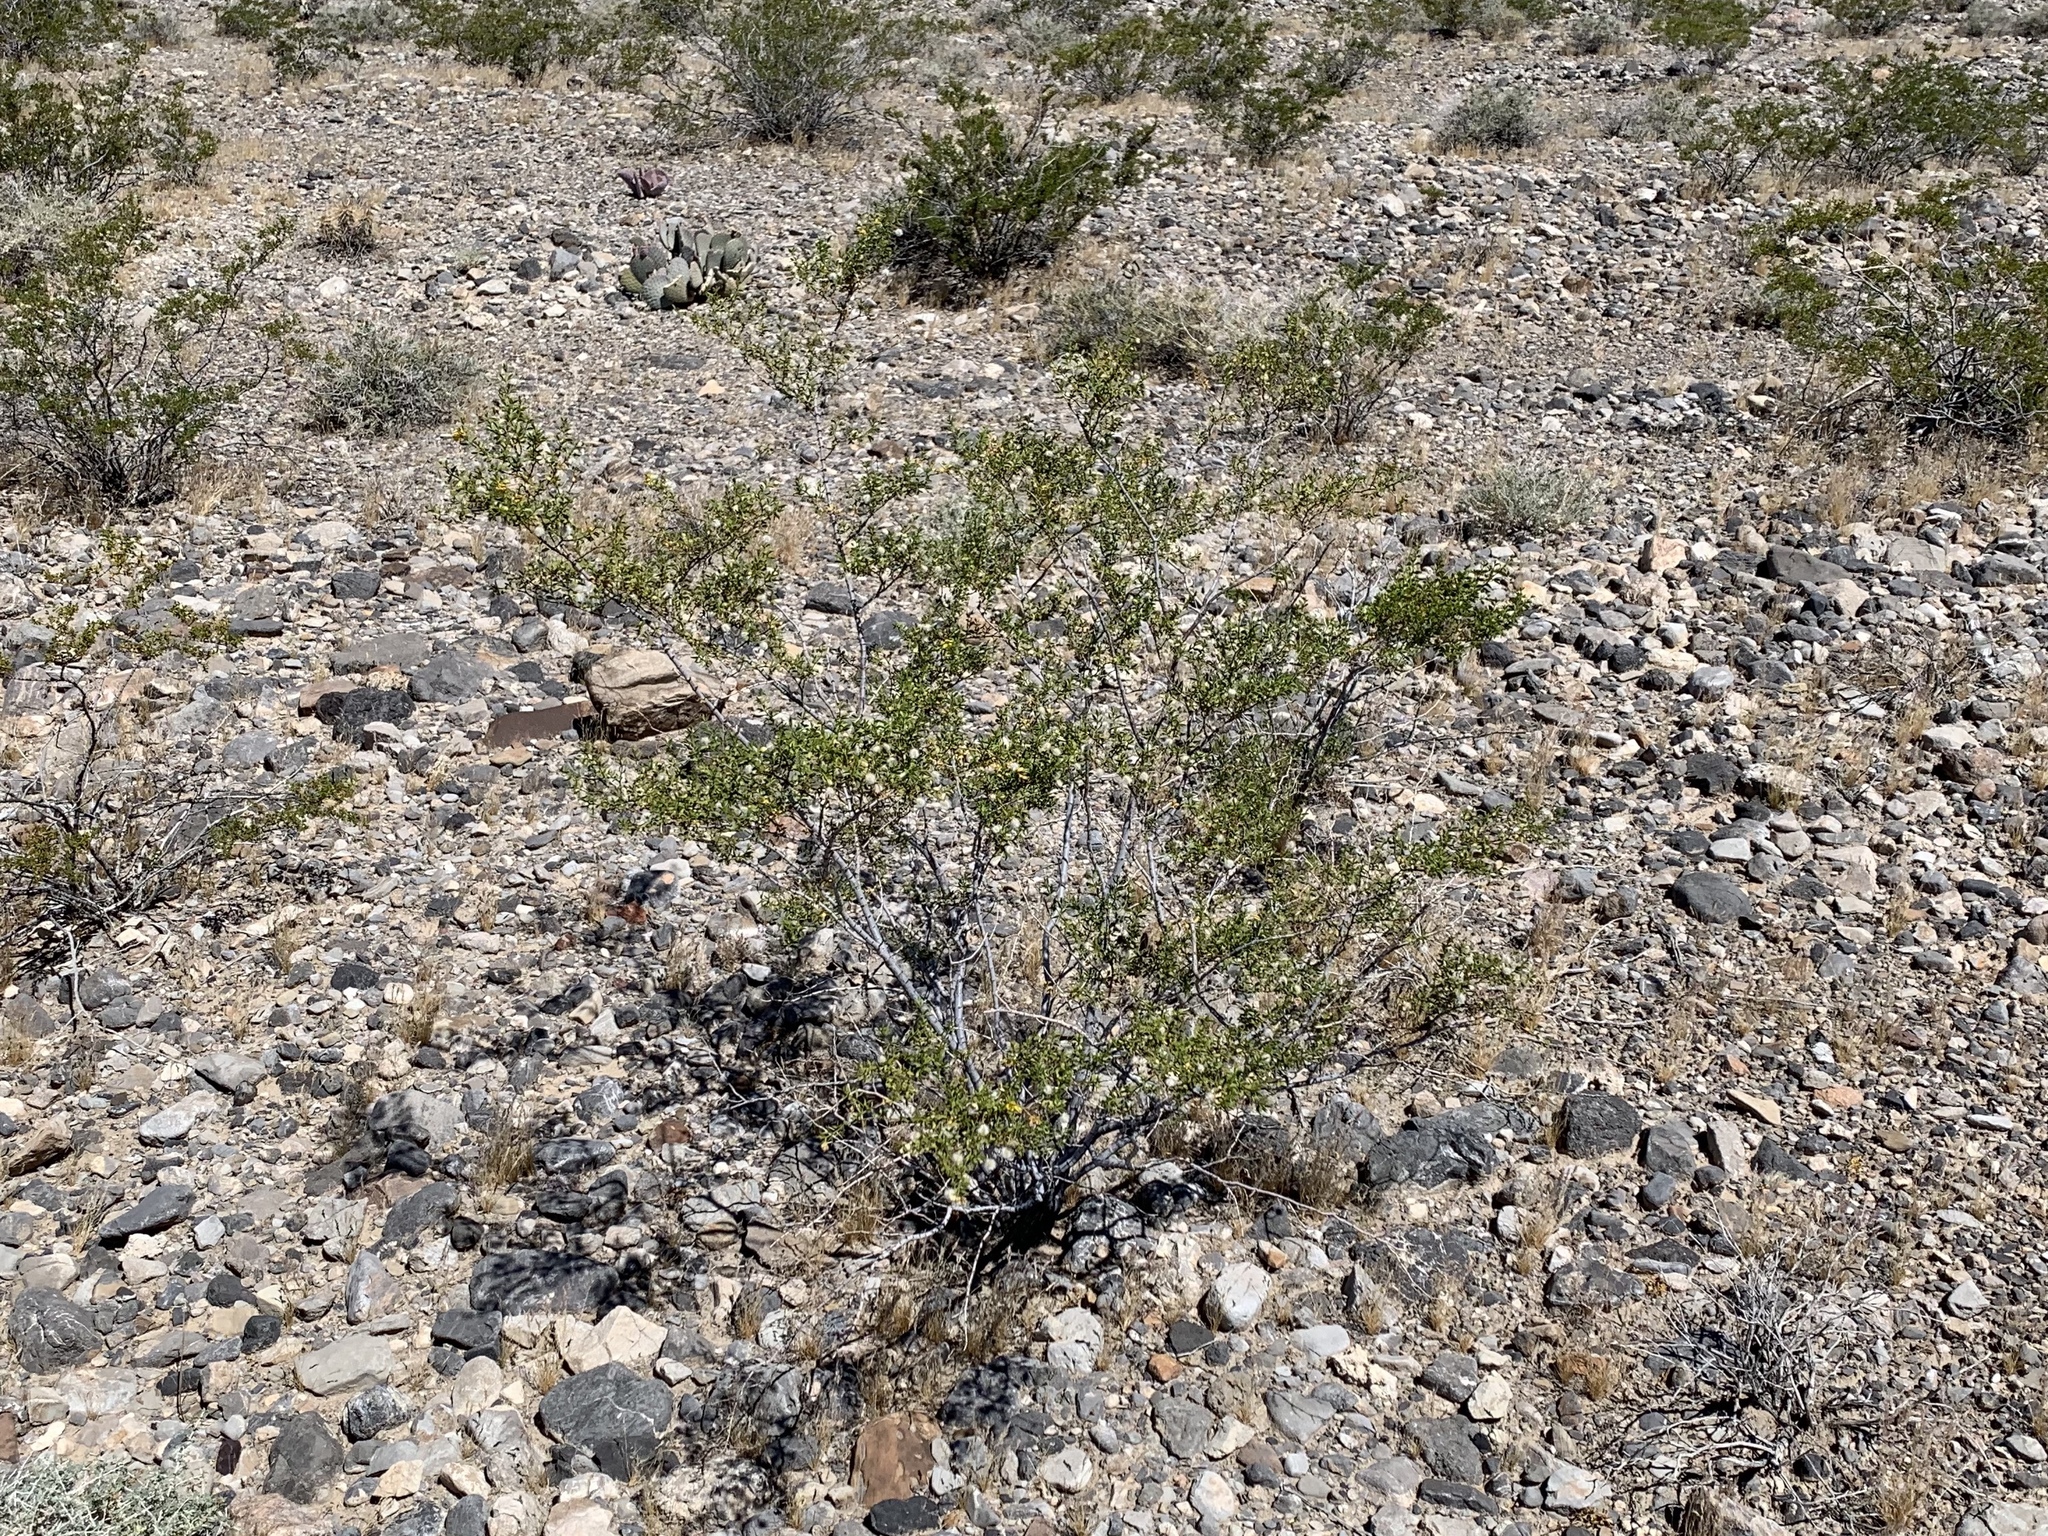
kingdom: Plantae
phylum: Tracheophyta
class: Magnoliopsida
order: Zygophyllales
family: Zygophyllaceae
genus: Larrea
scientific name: Larrea tridentata
